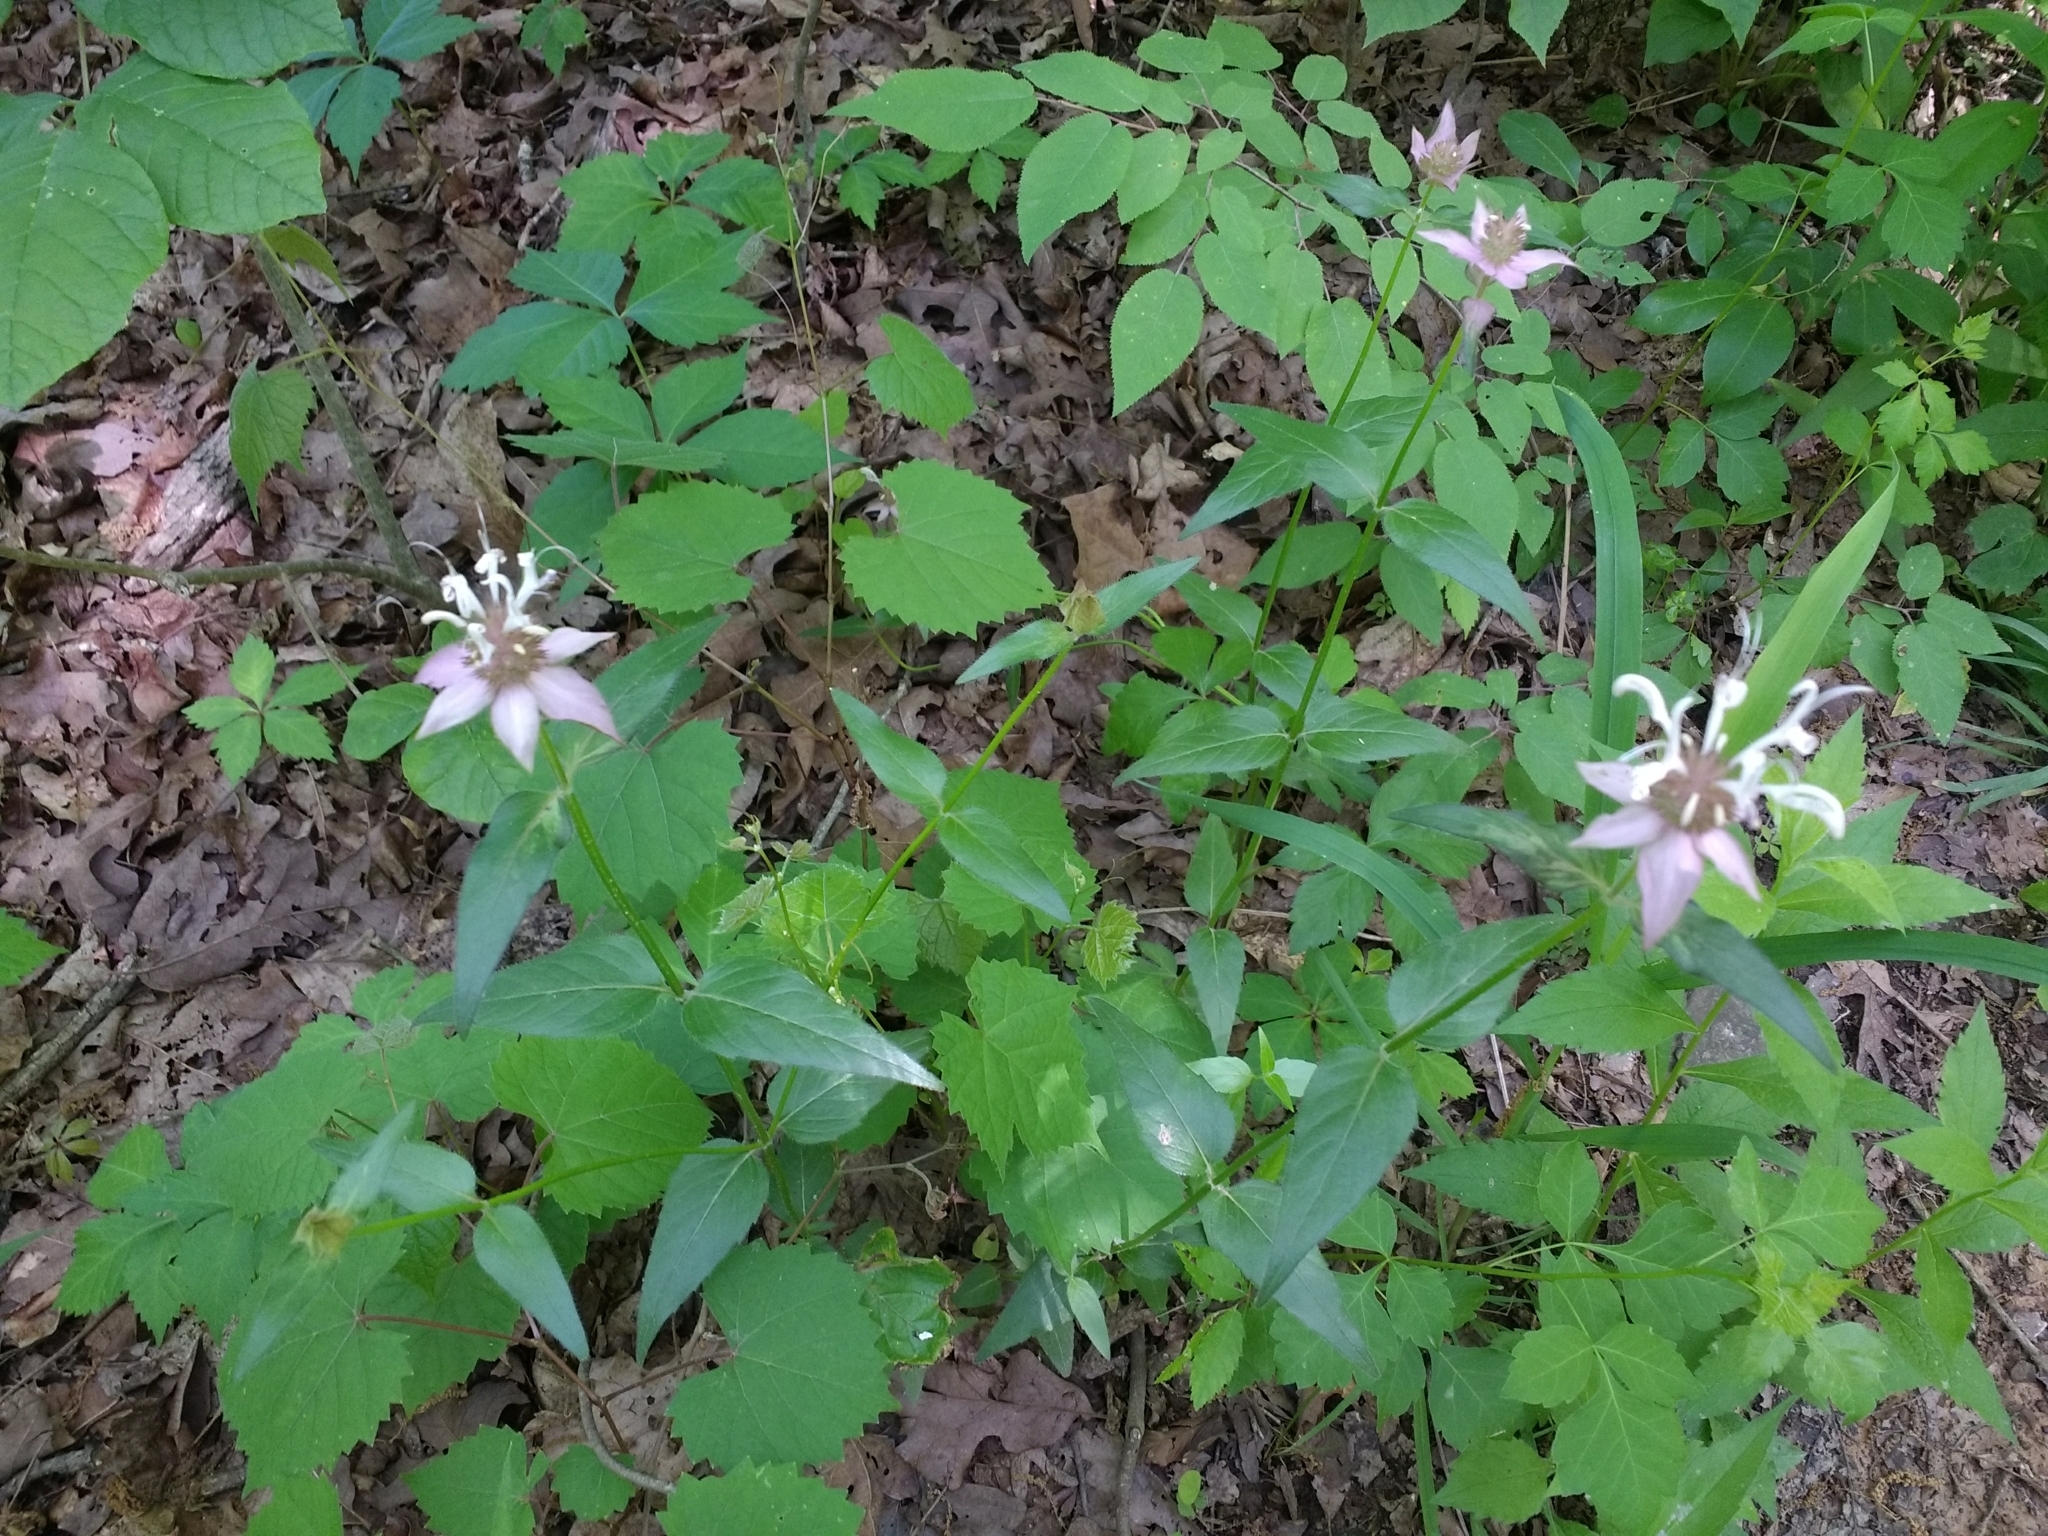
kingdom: Plantae
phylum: Tracheophyta
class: Magnoliopsida
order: Lamiales
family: Lamiaceae
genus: Monarda
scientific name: Monarda russeliana
